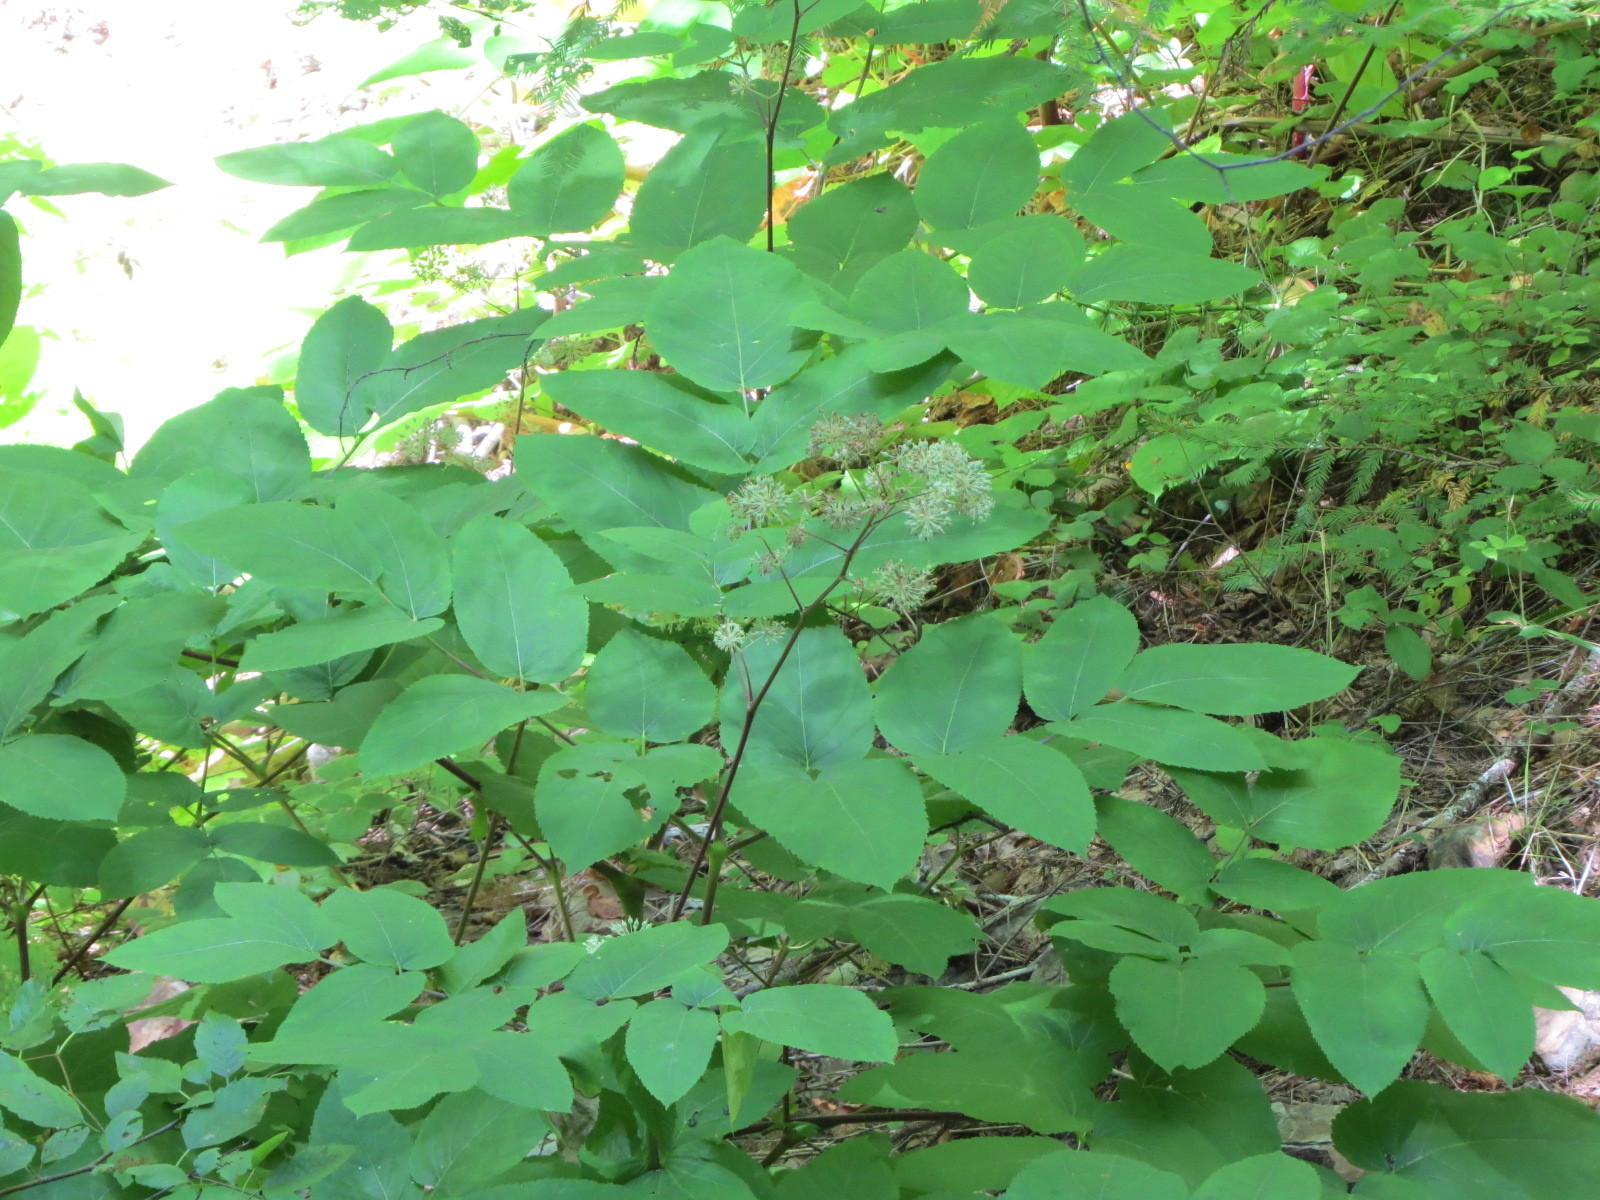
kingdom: Plantae
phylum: Tracheophyta
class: Magnoliopsida
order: Apiales
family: Araliaceae
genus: Aralia
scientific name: Aralia californica
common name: California-ginseng
